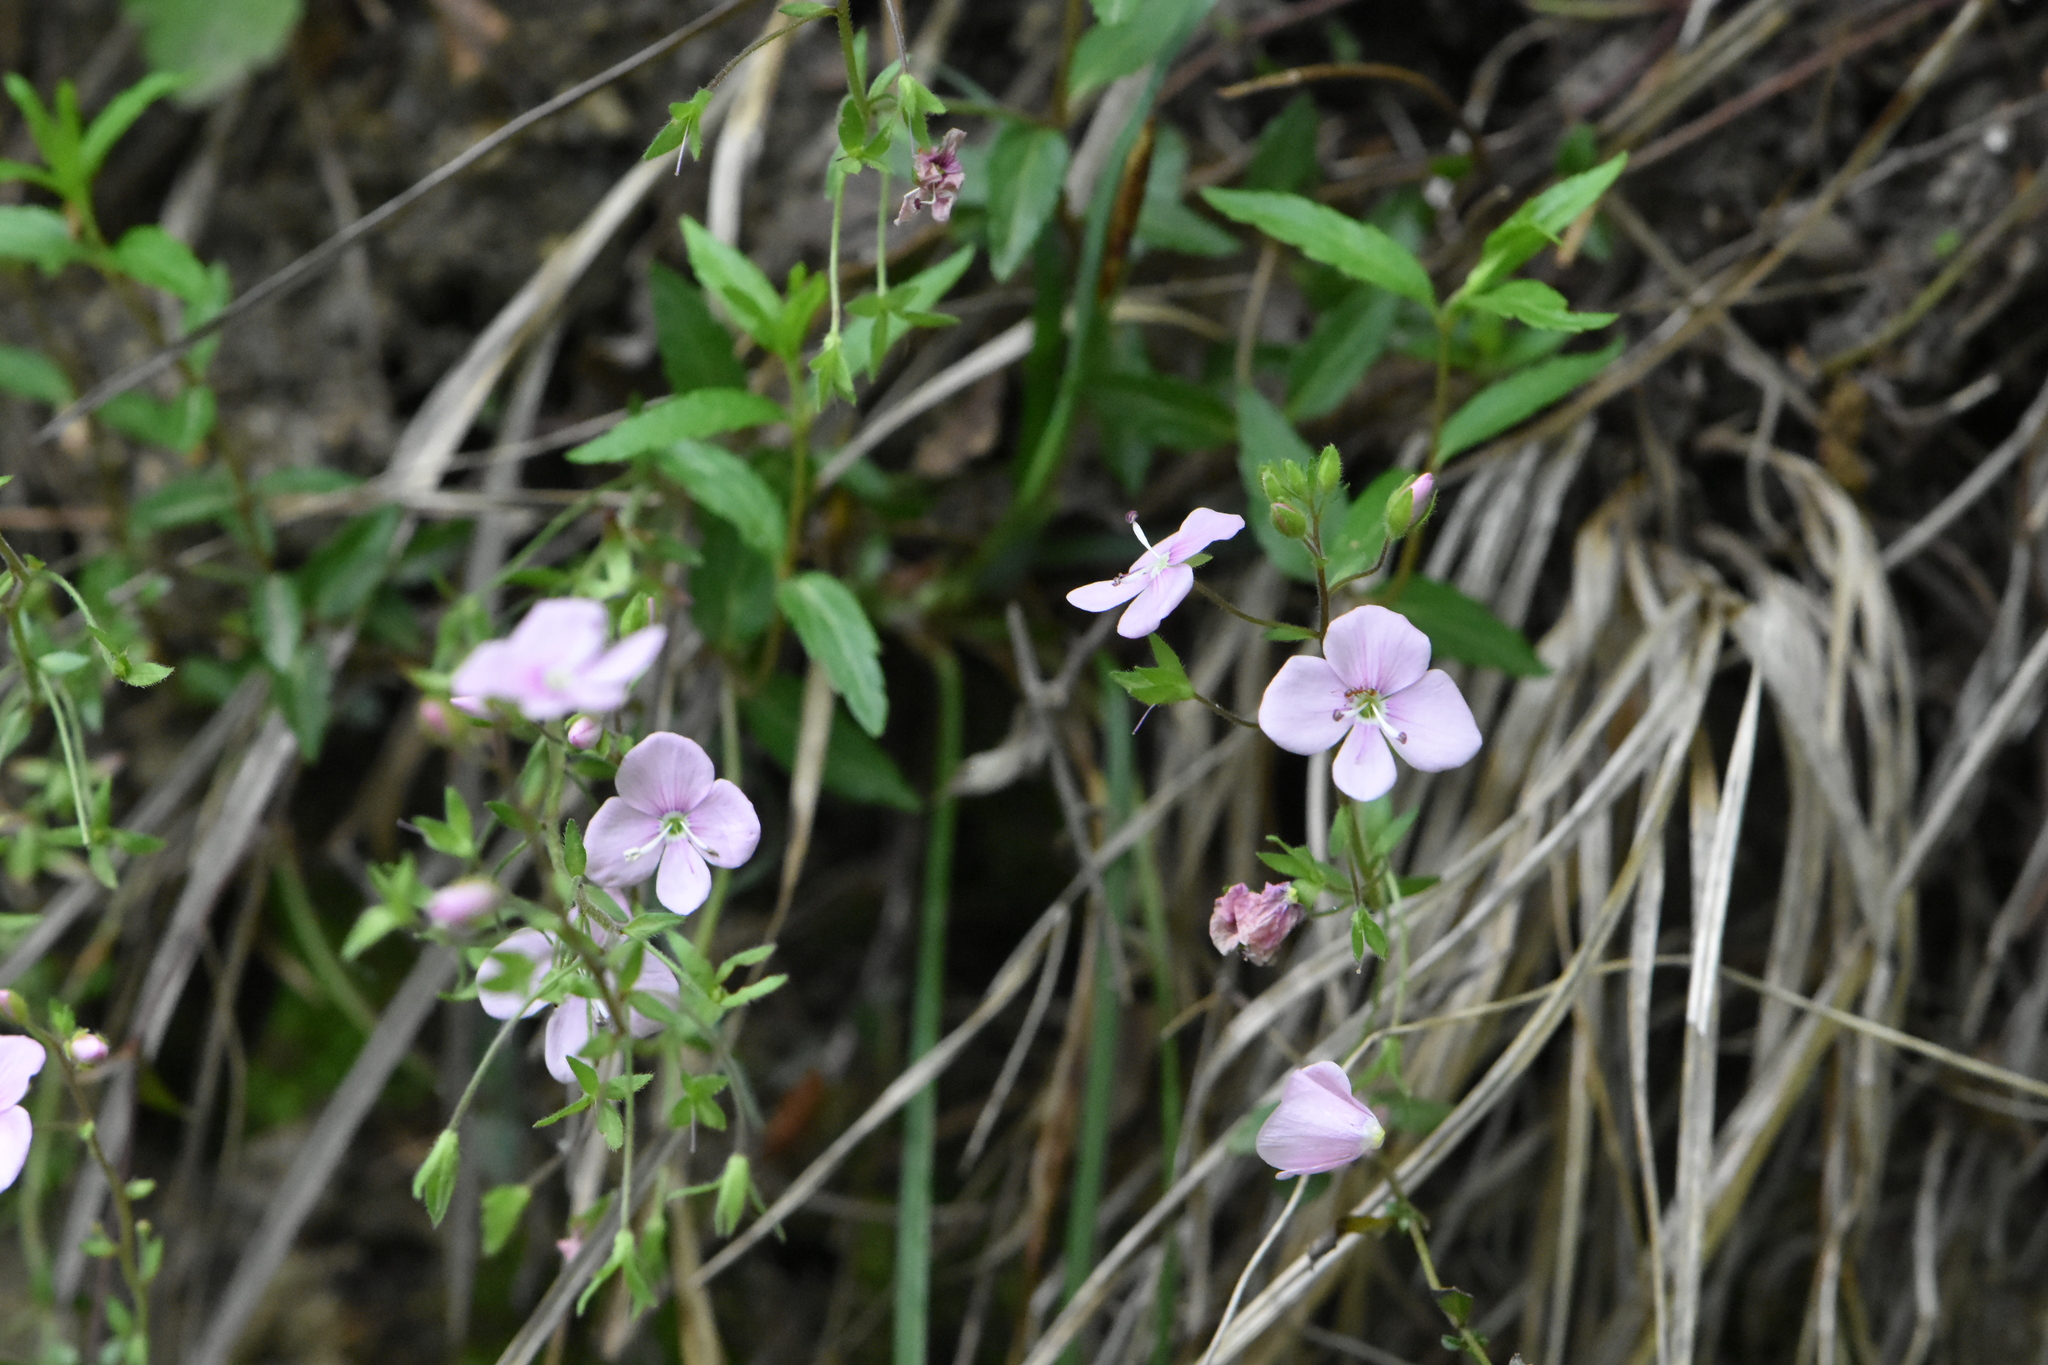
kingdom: Plantae
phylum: Tracheophyta
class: Magnoliopsida
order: Lamiales
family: Plantaginaceae
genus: Veronica
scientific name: Veronica
